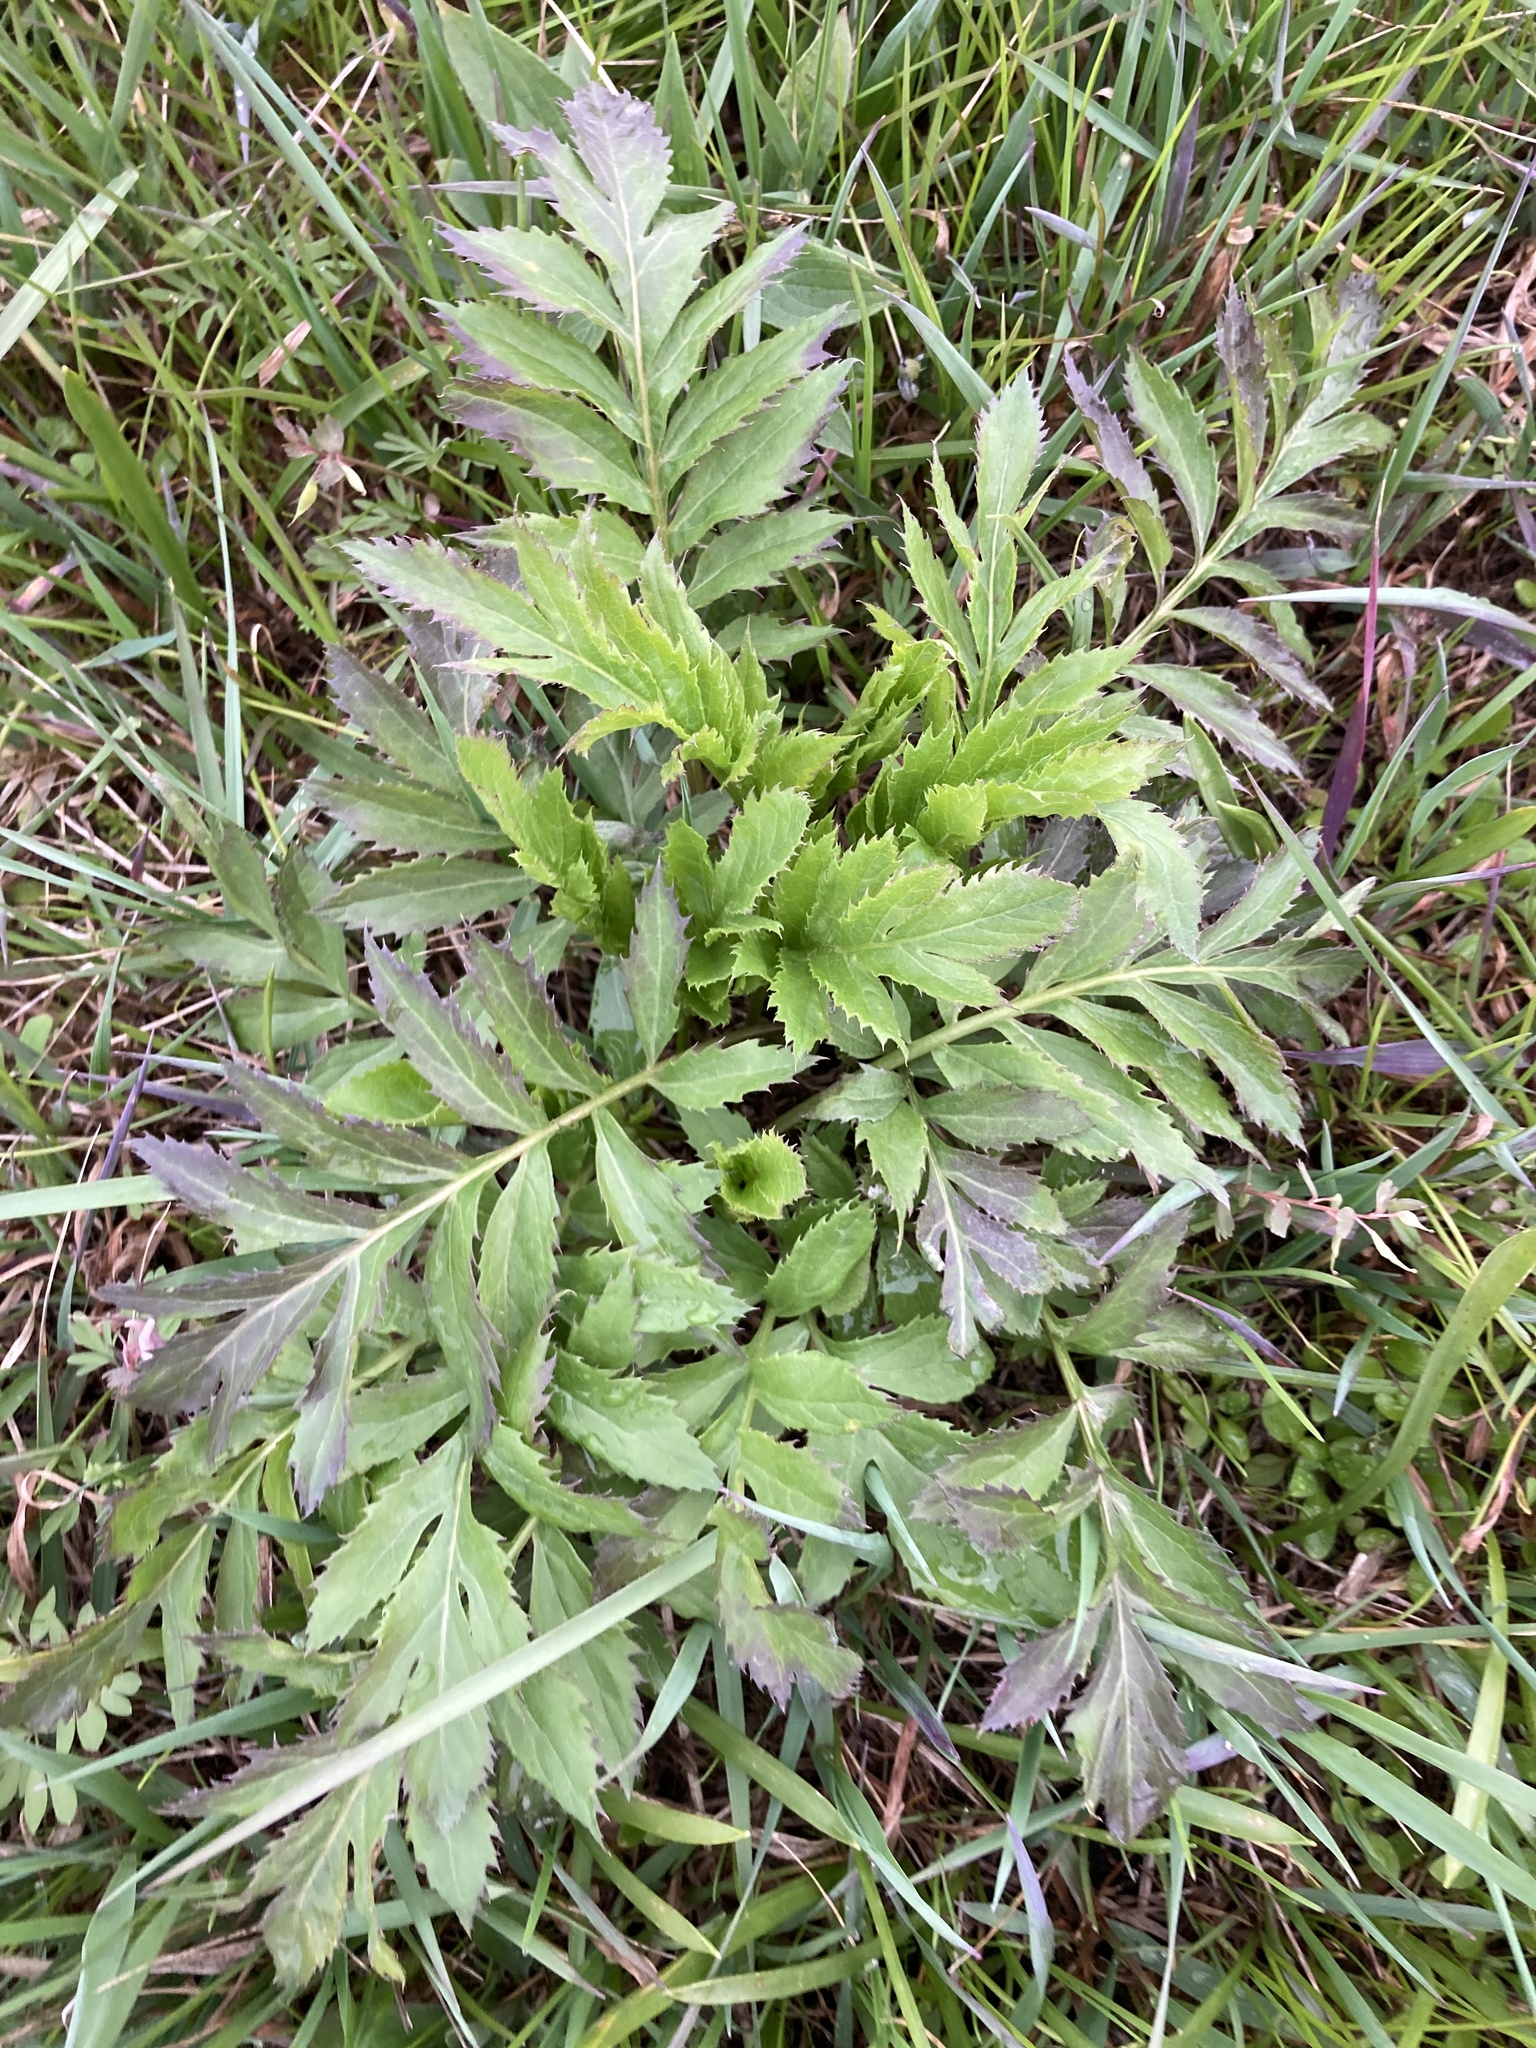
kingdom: Plantae
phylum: Tracheophyta
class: Magnoliopsida
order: Asterales
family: Asteraceae
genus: Serratula
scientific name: Serratula coronata
